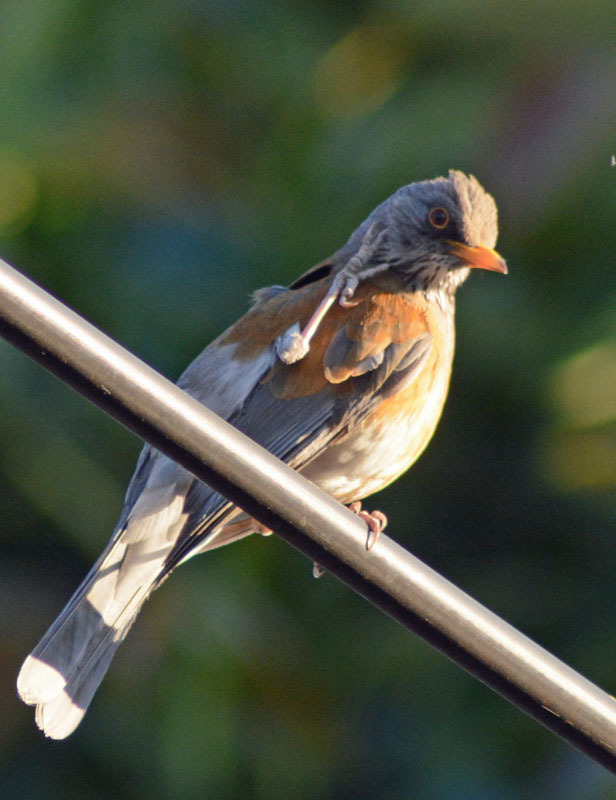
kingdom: Animalia
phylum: Chordata
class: Aves
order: Passeriformes
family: Turdidae
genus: Turdus
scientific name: Turdus rufopalliatus
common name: Rufous-backed robin
